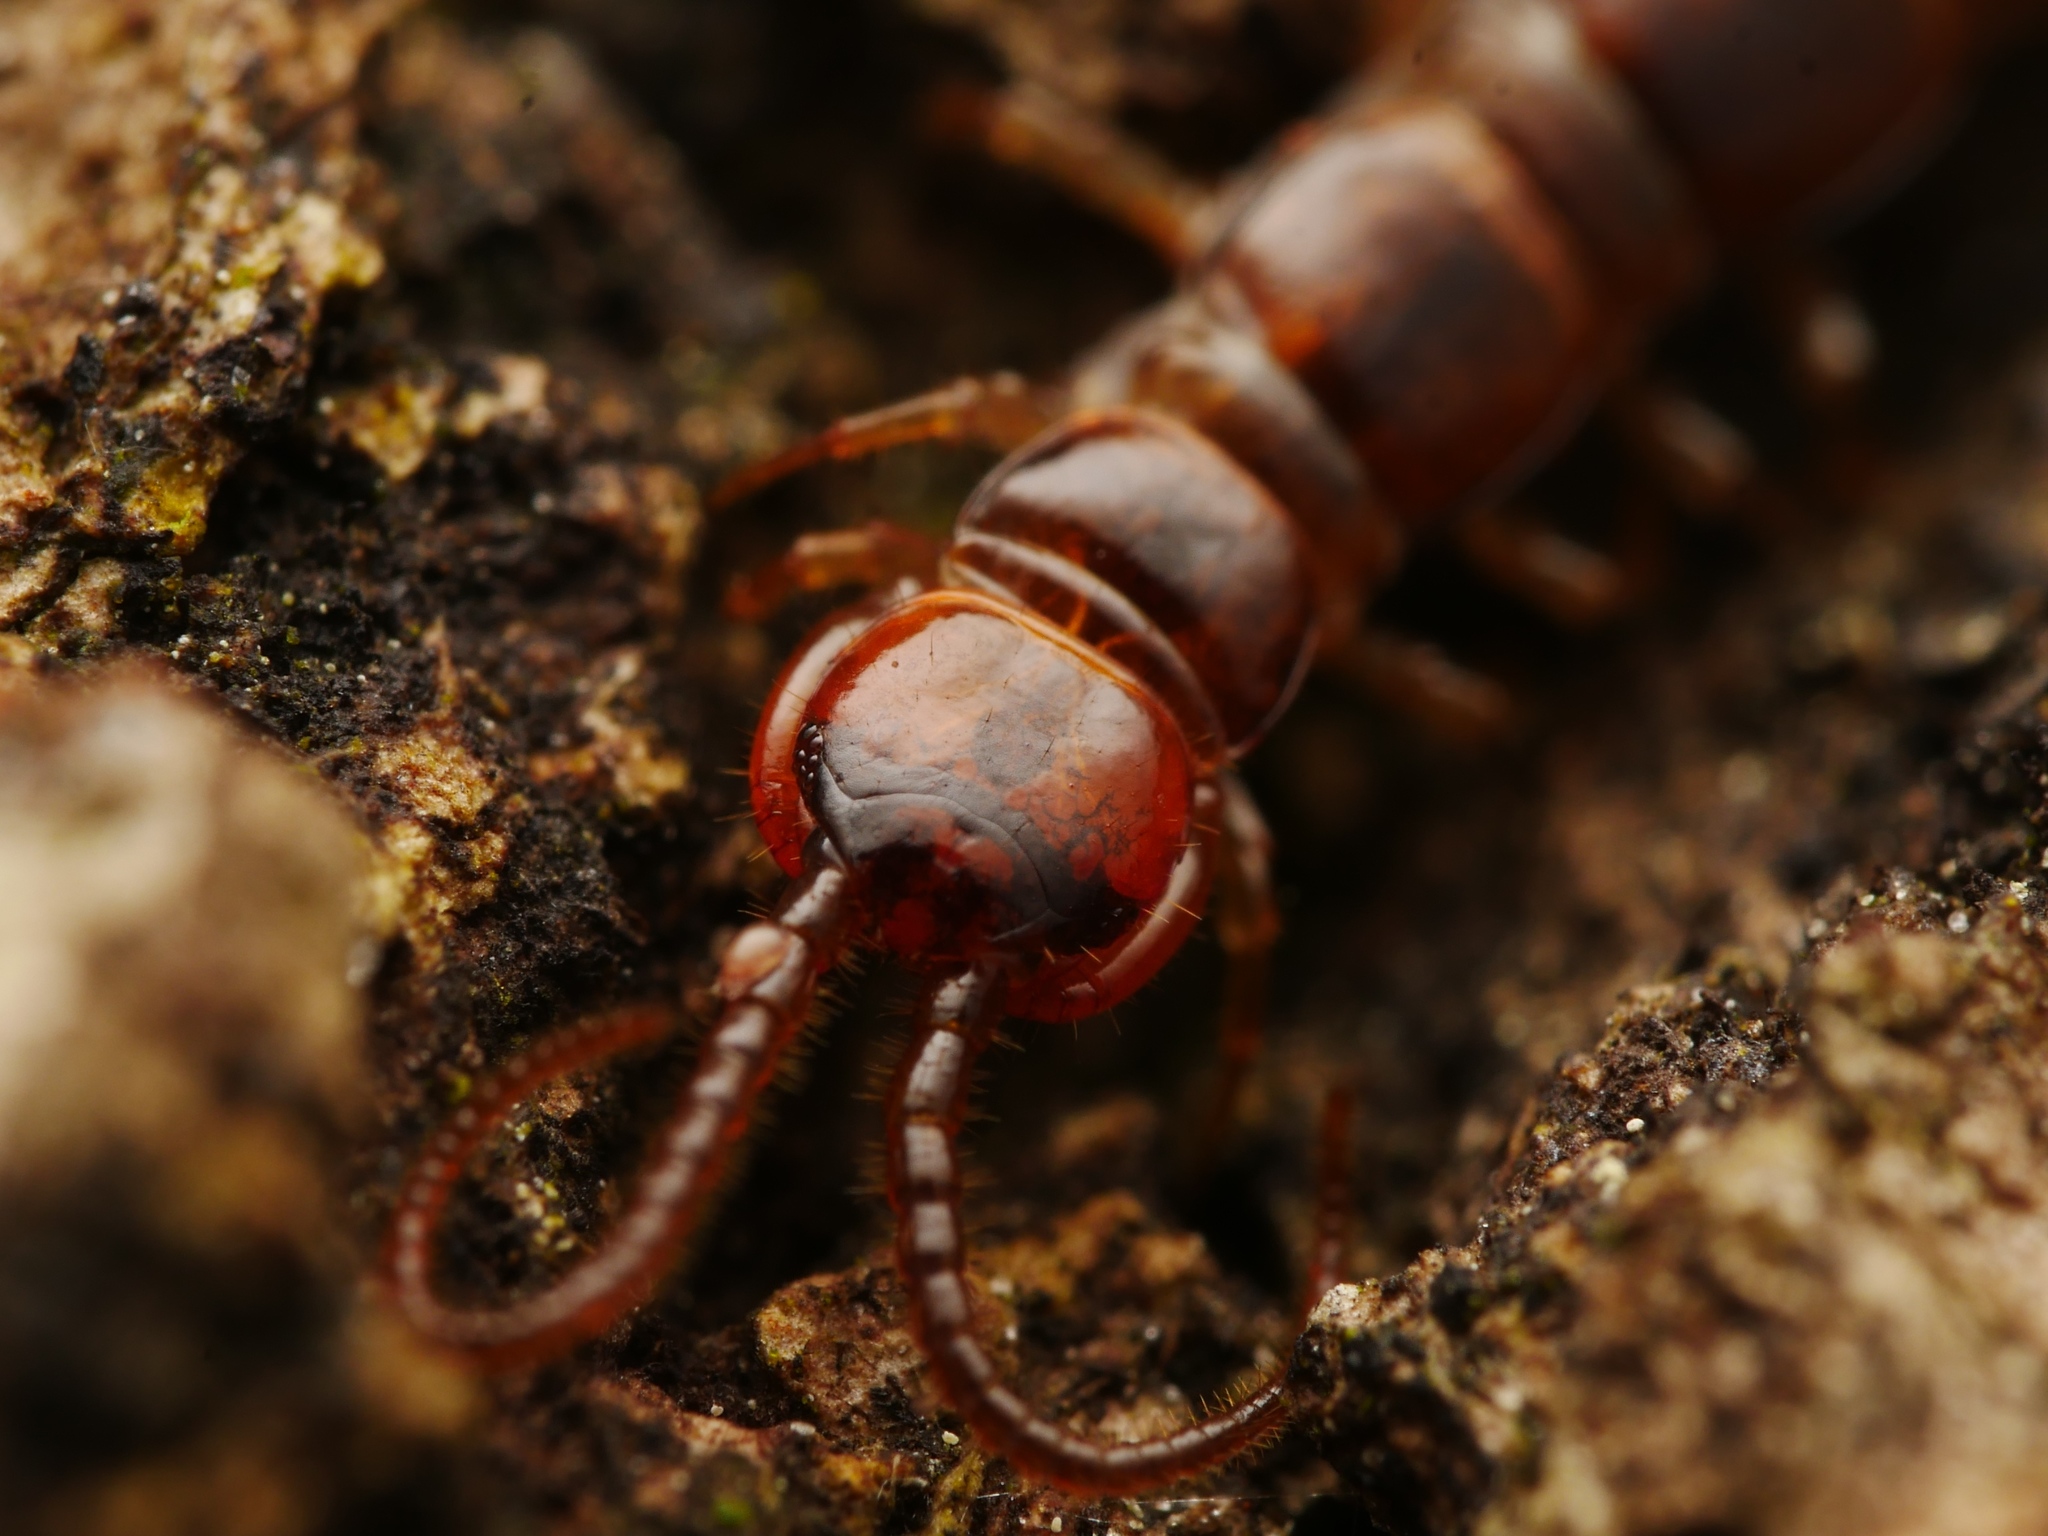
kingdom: Animalia
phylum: Arthropoda
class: Chilopoda
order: Lithobiomorpha
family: Lithobiidae
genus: Lithobius
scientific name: Lithobius forficatus
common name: Centipede
